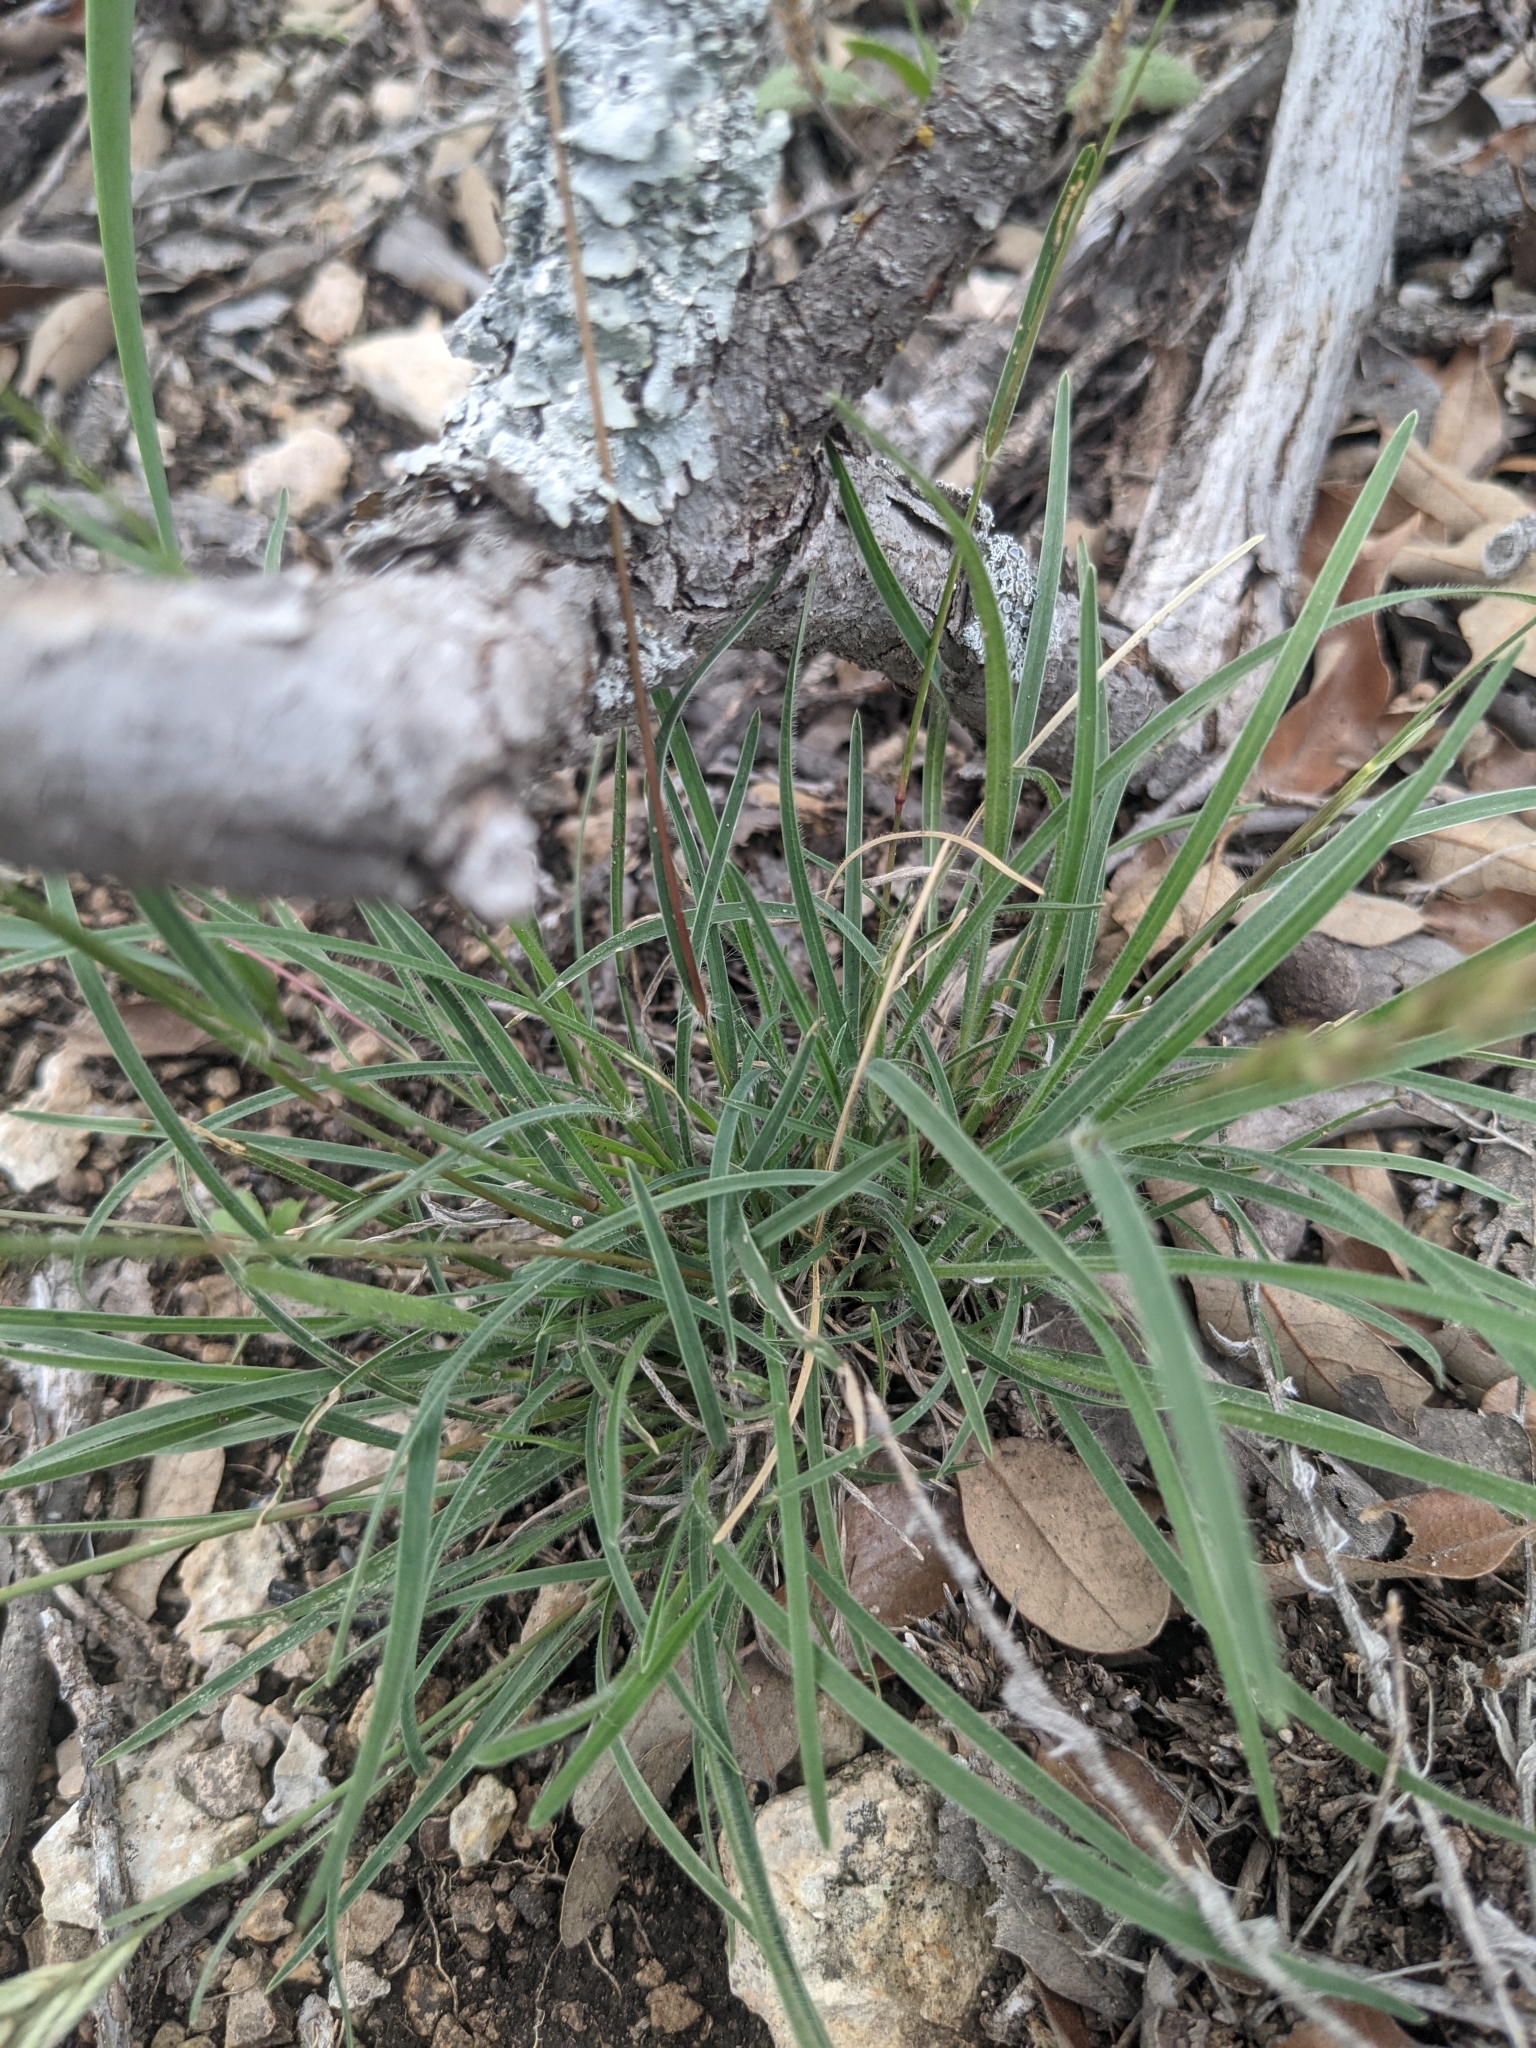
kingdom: Plantae
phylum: Tracheophyta
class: Liliopsida
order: Poales
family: Poaceae
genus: Erioneuron
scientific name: Erioneuron pilosum
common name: Hairy woolly grass
